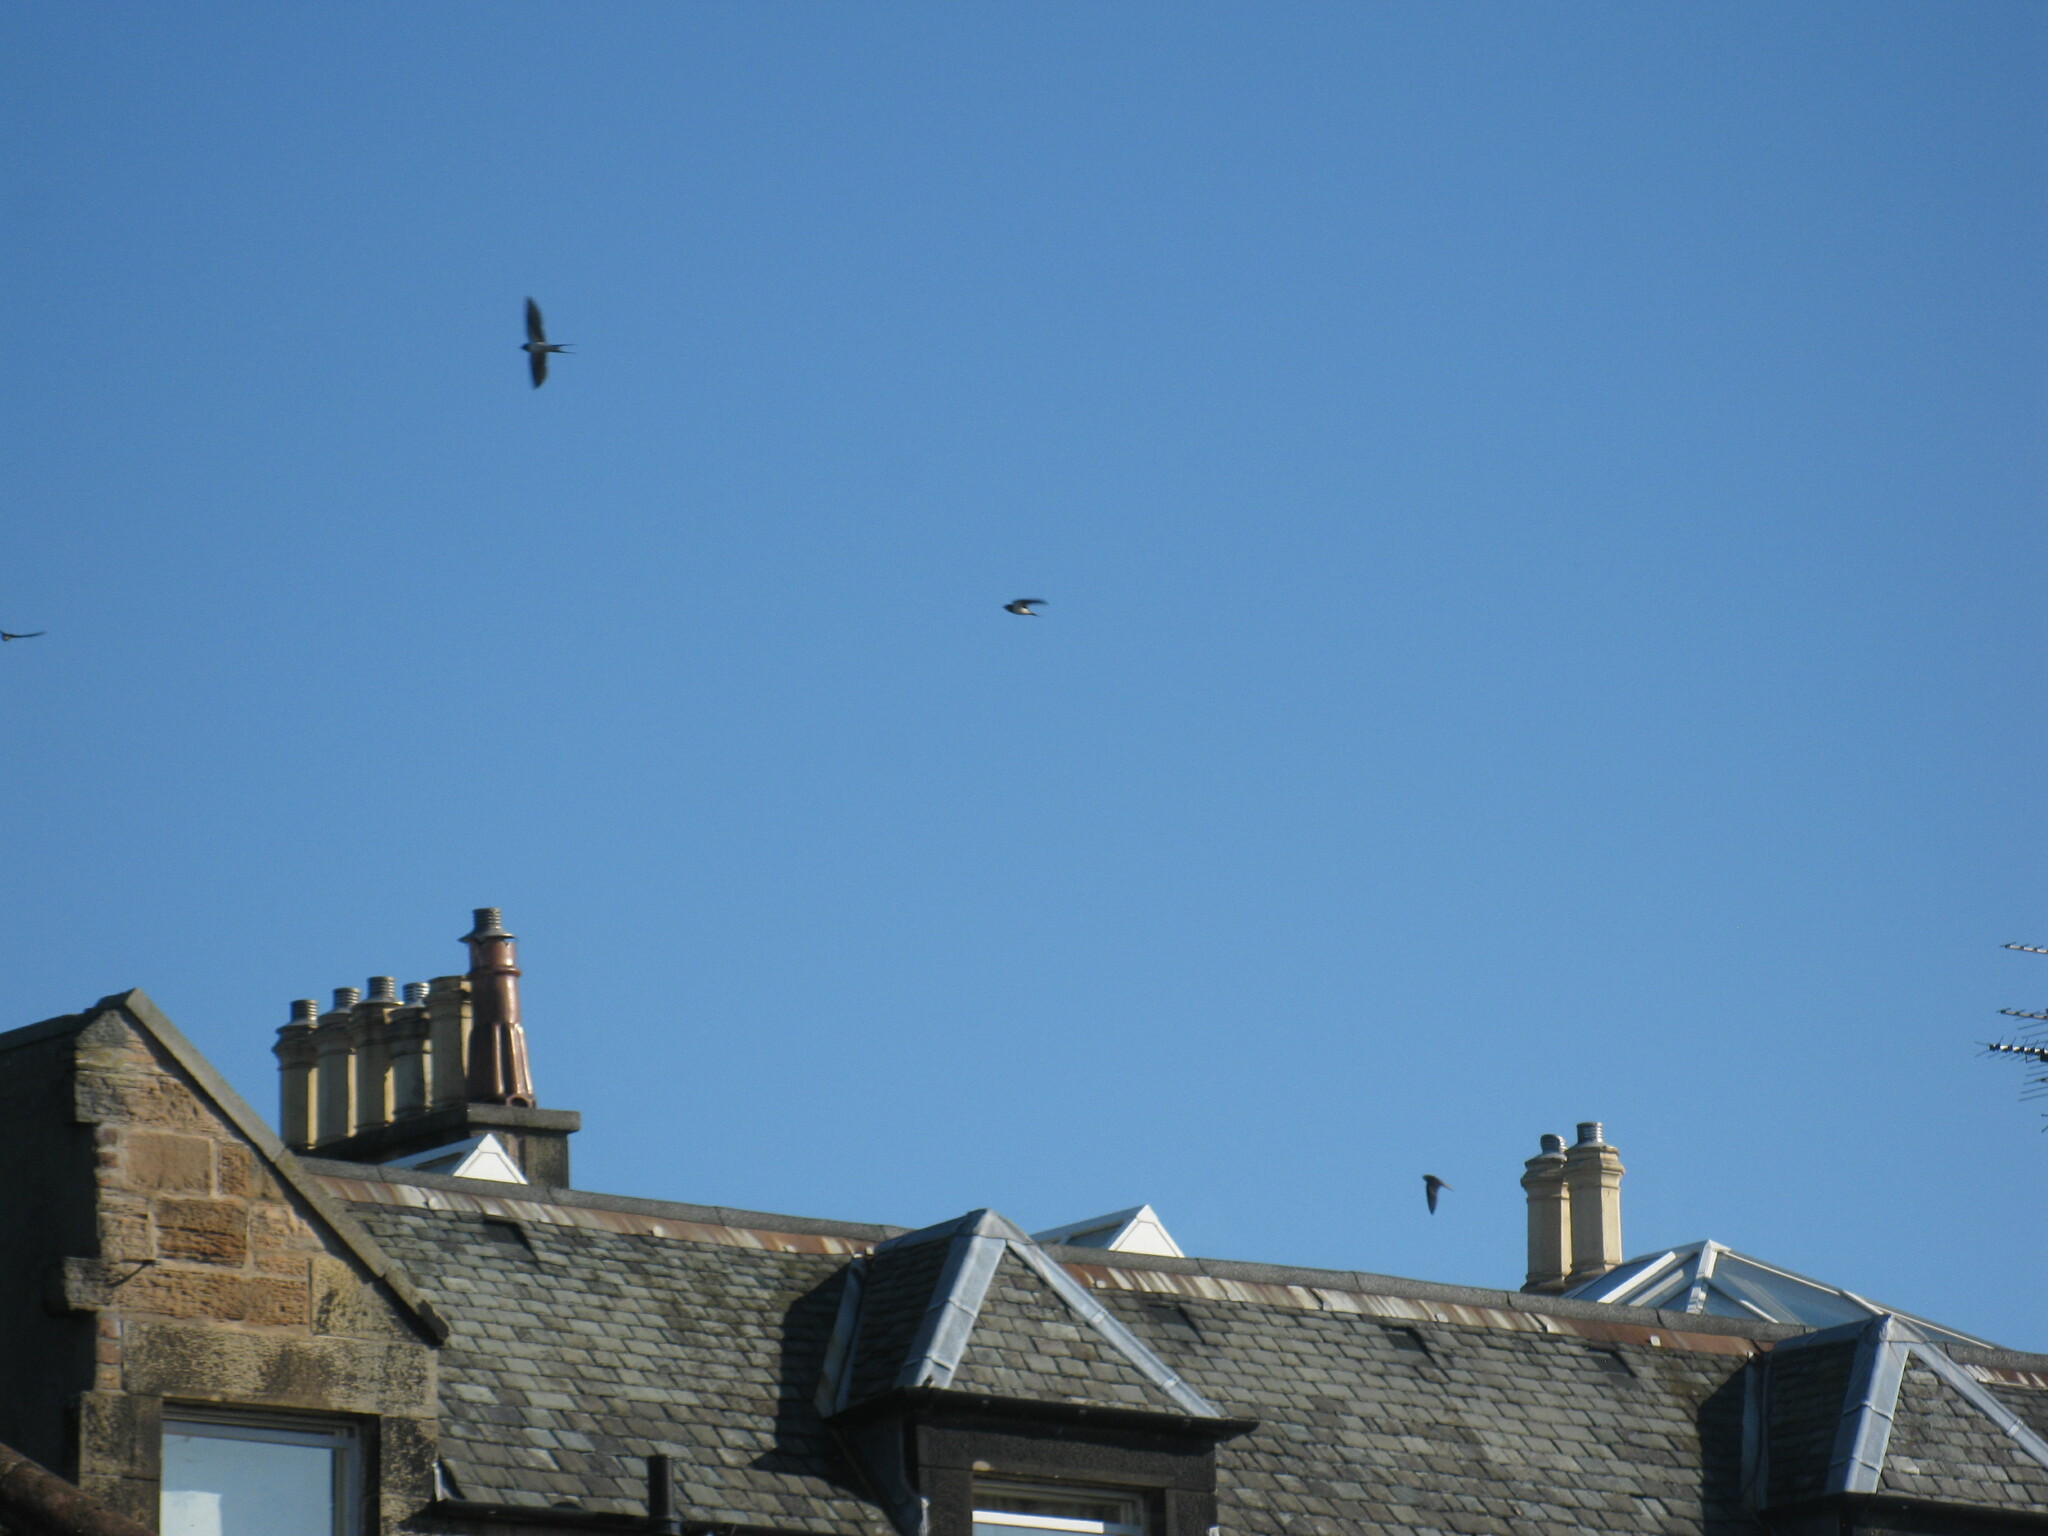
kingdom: Animalia
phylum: Chordata
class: Aves
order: Passeriformes
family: Hirundinidae
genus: Hirundo
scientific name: Hirundo rustica
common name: Barn swallow
